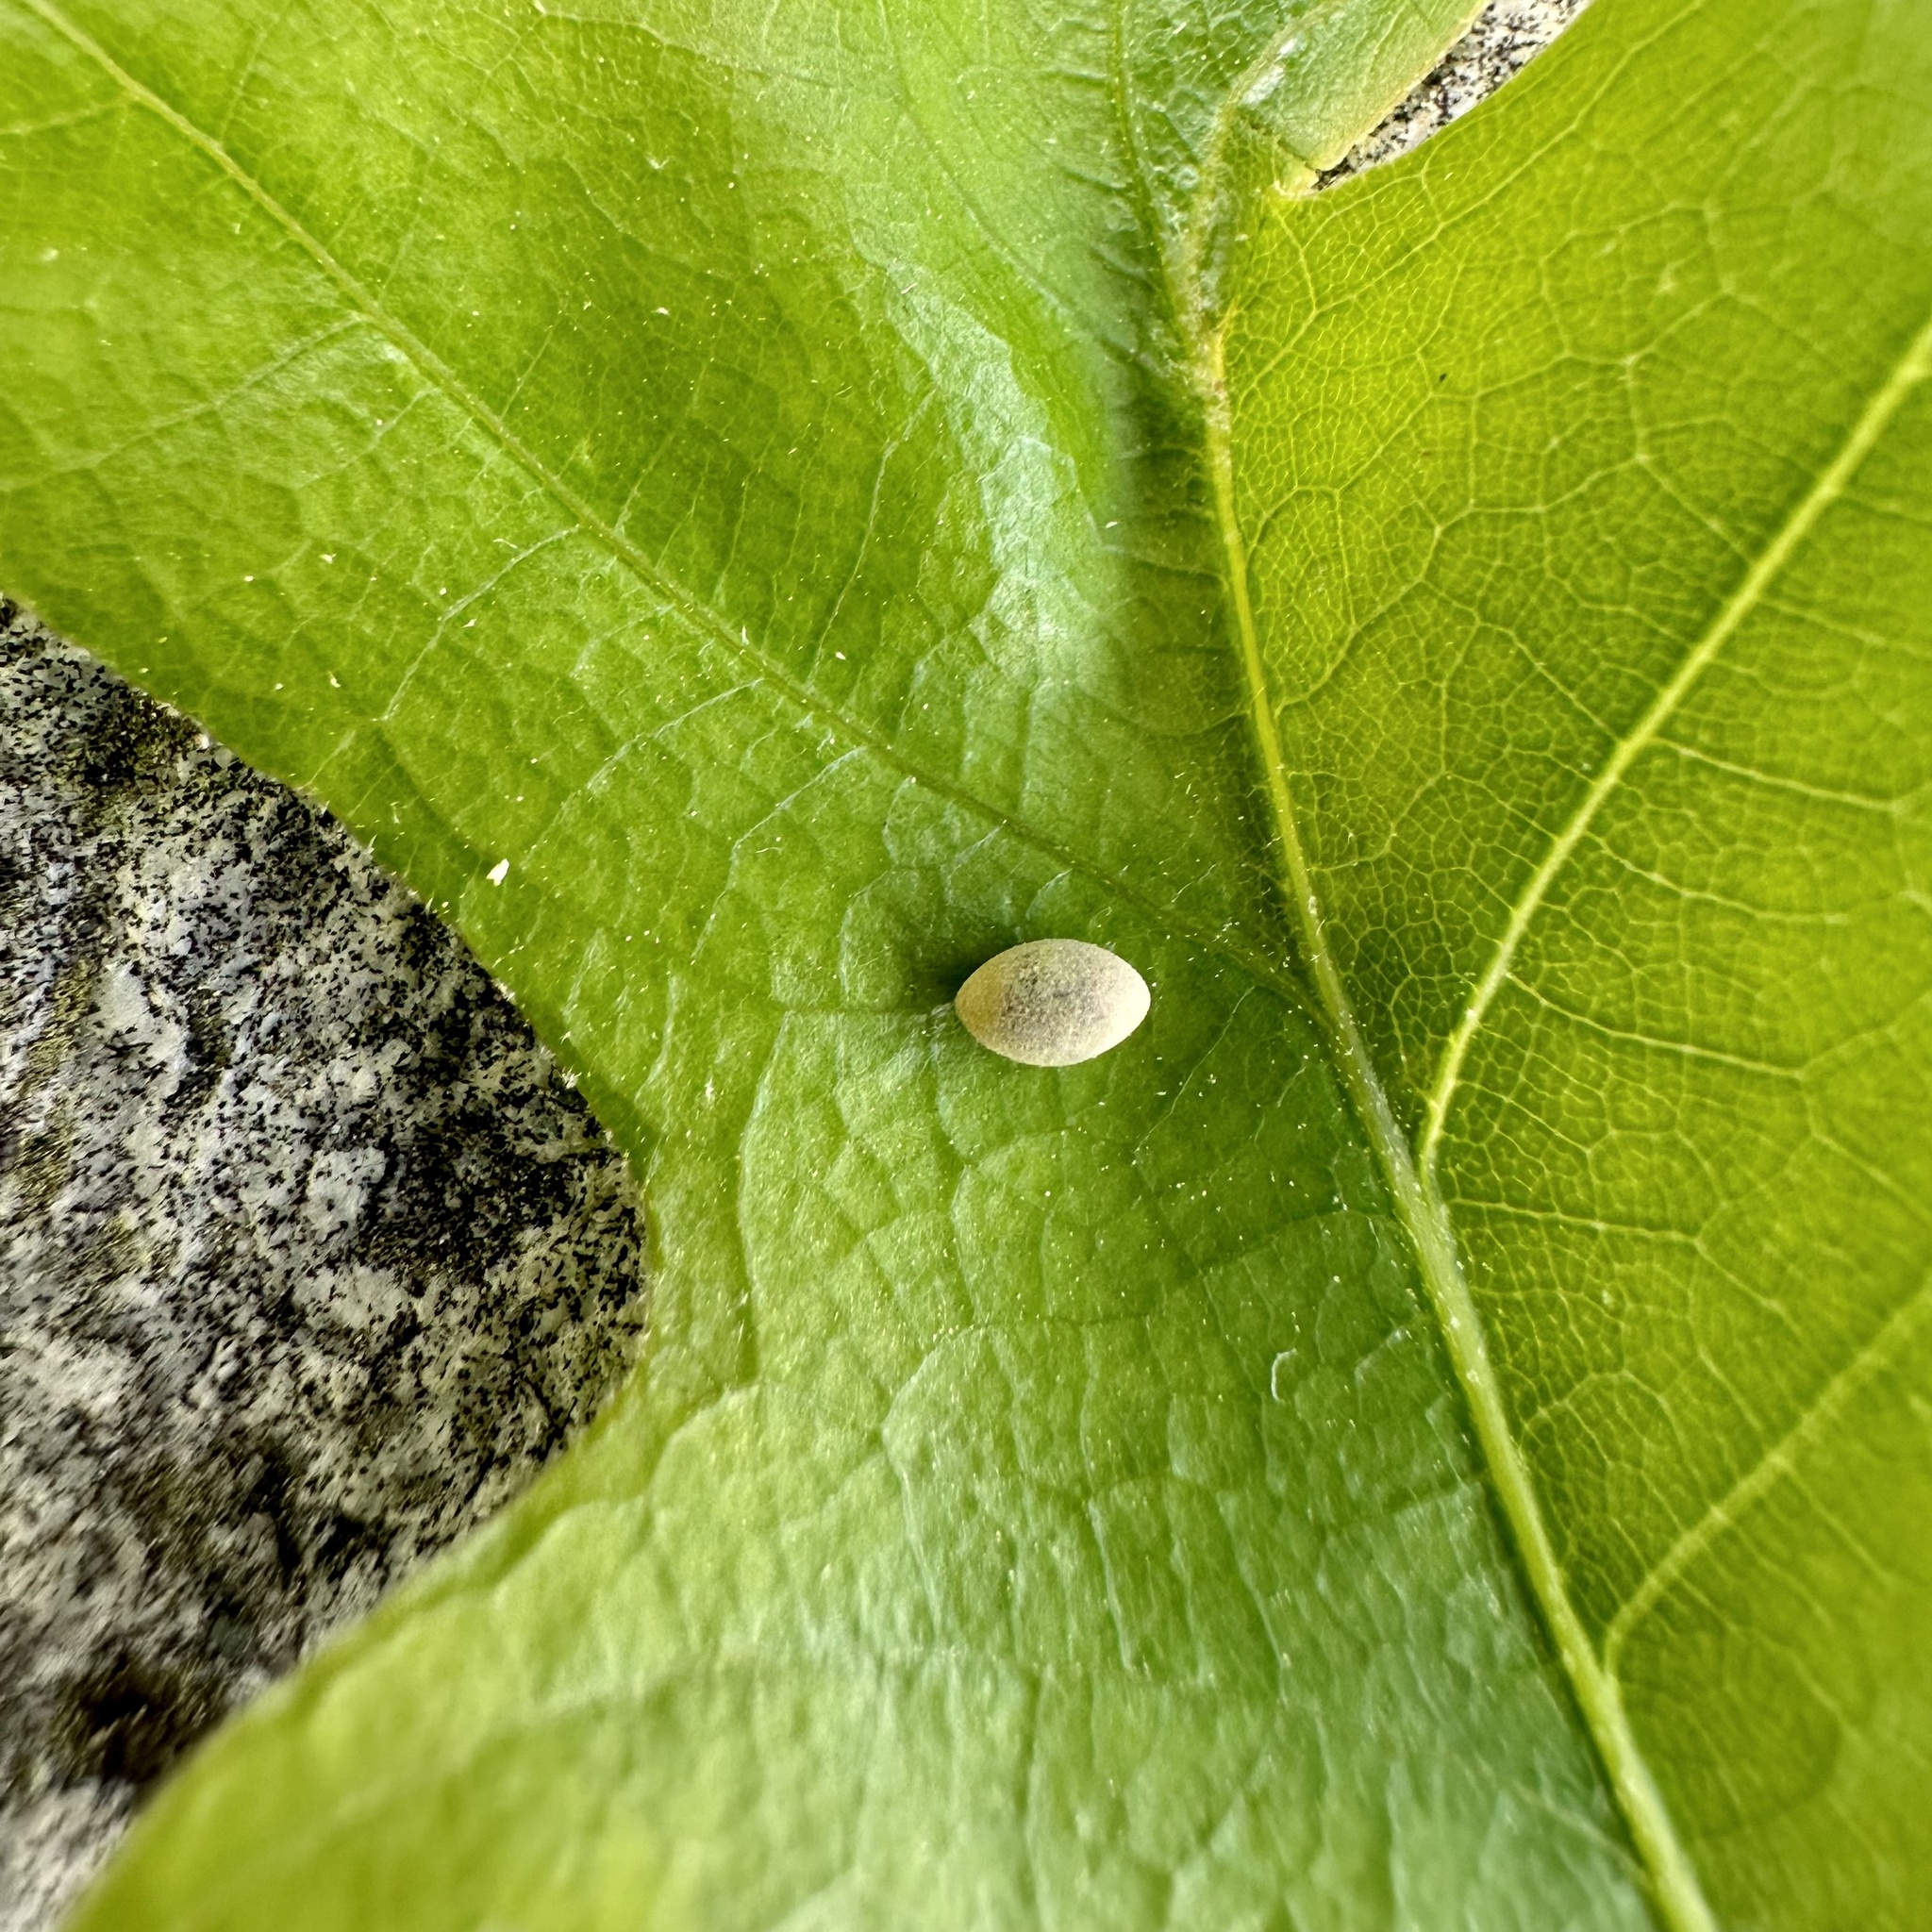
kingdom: Animalia
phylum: Arthropoda
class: Insecta
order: Hymenoptera
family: Cynipidae
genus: Dryocosmus
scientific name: Dryocosmus quercuspalustris
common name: Succulent oak gall wasp
